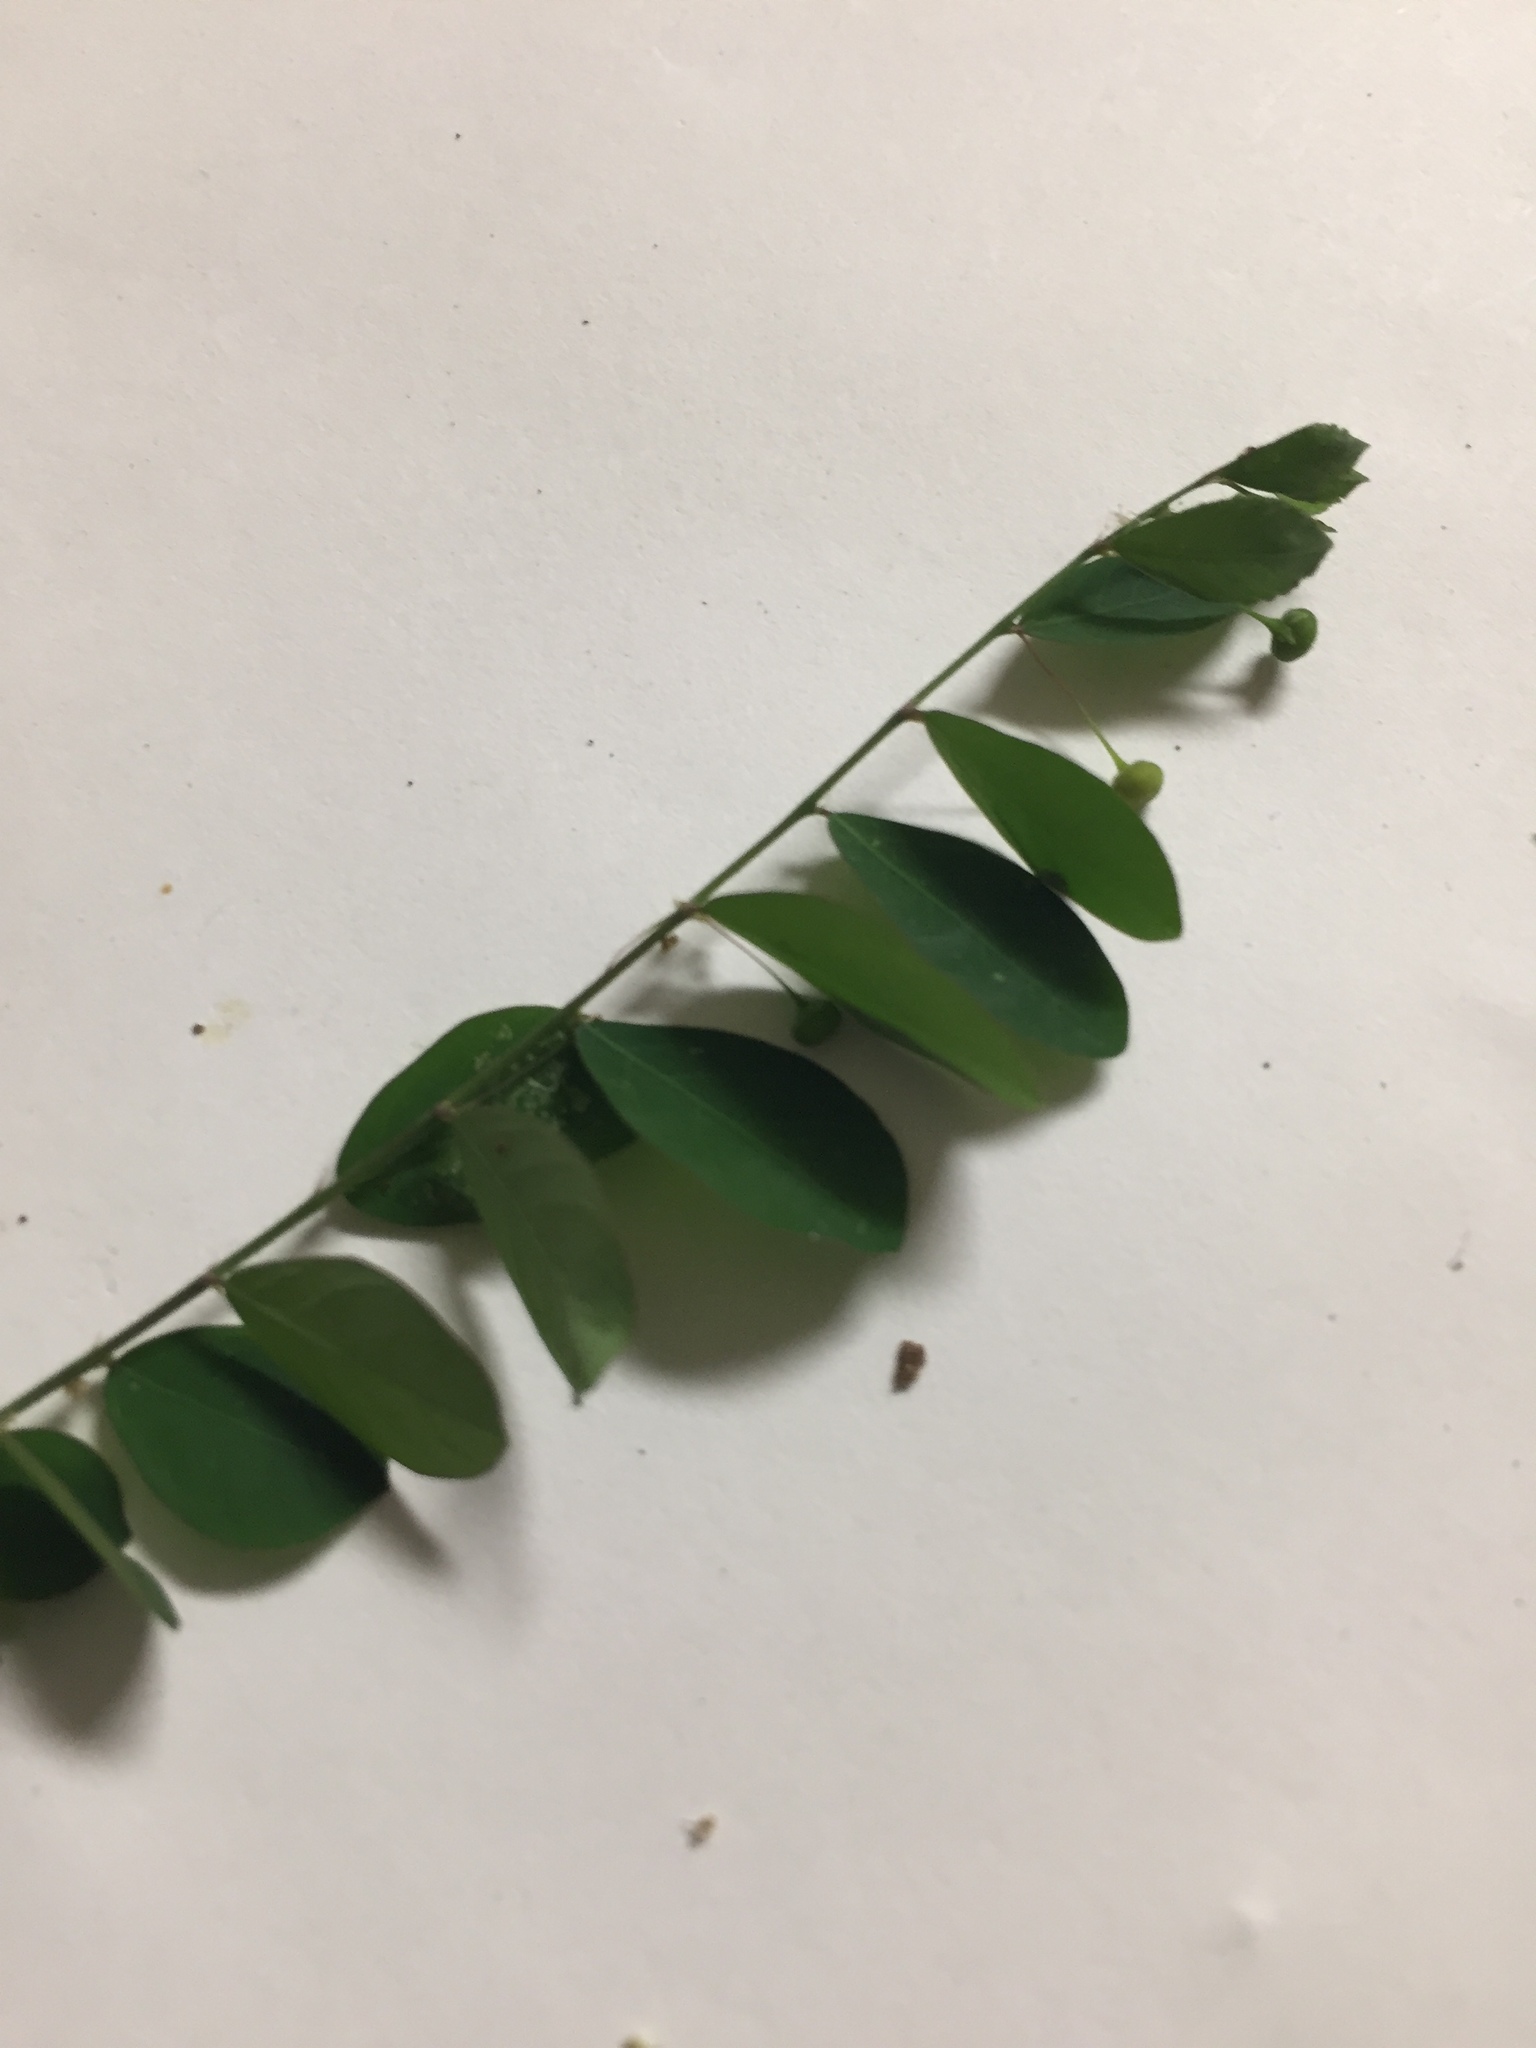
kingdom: Plantae
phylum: Tracheophyta
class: Magnoliopsida
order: Malpighiales
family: Phyllanthaceae
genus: Phyllanthus
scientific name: Phyllanthus tenellus
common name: Mascarene island leaf-flower
